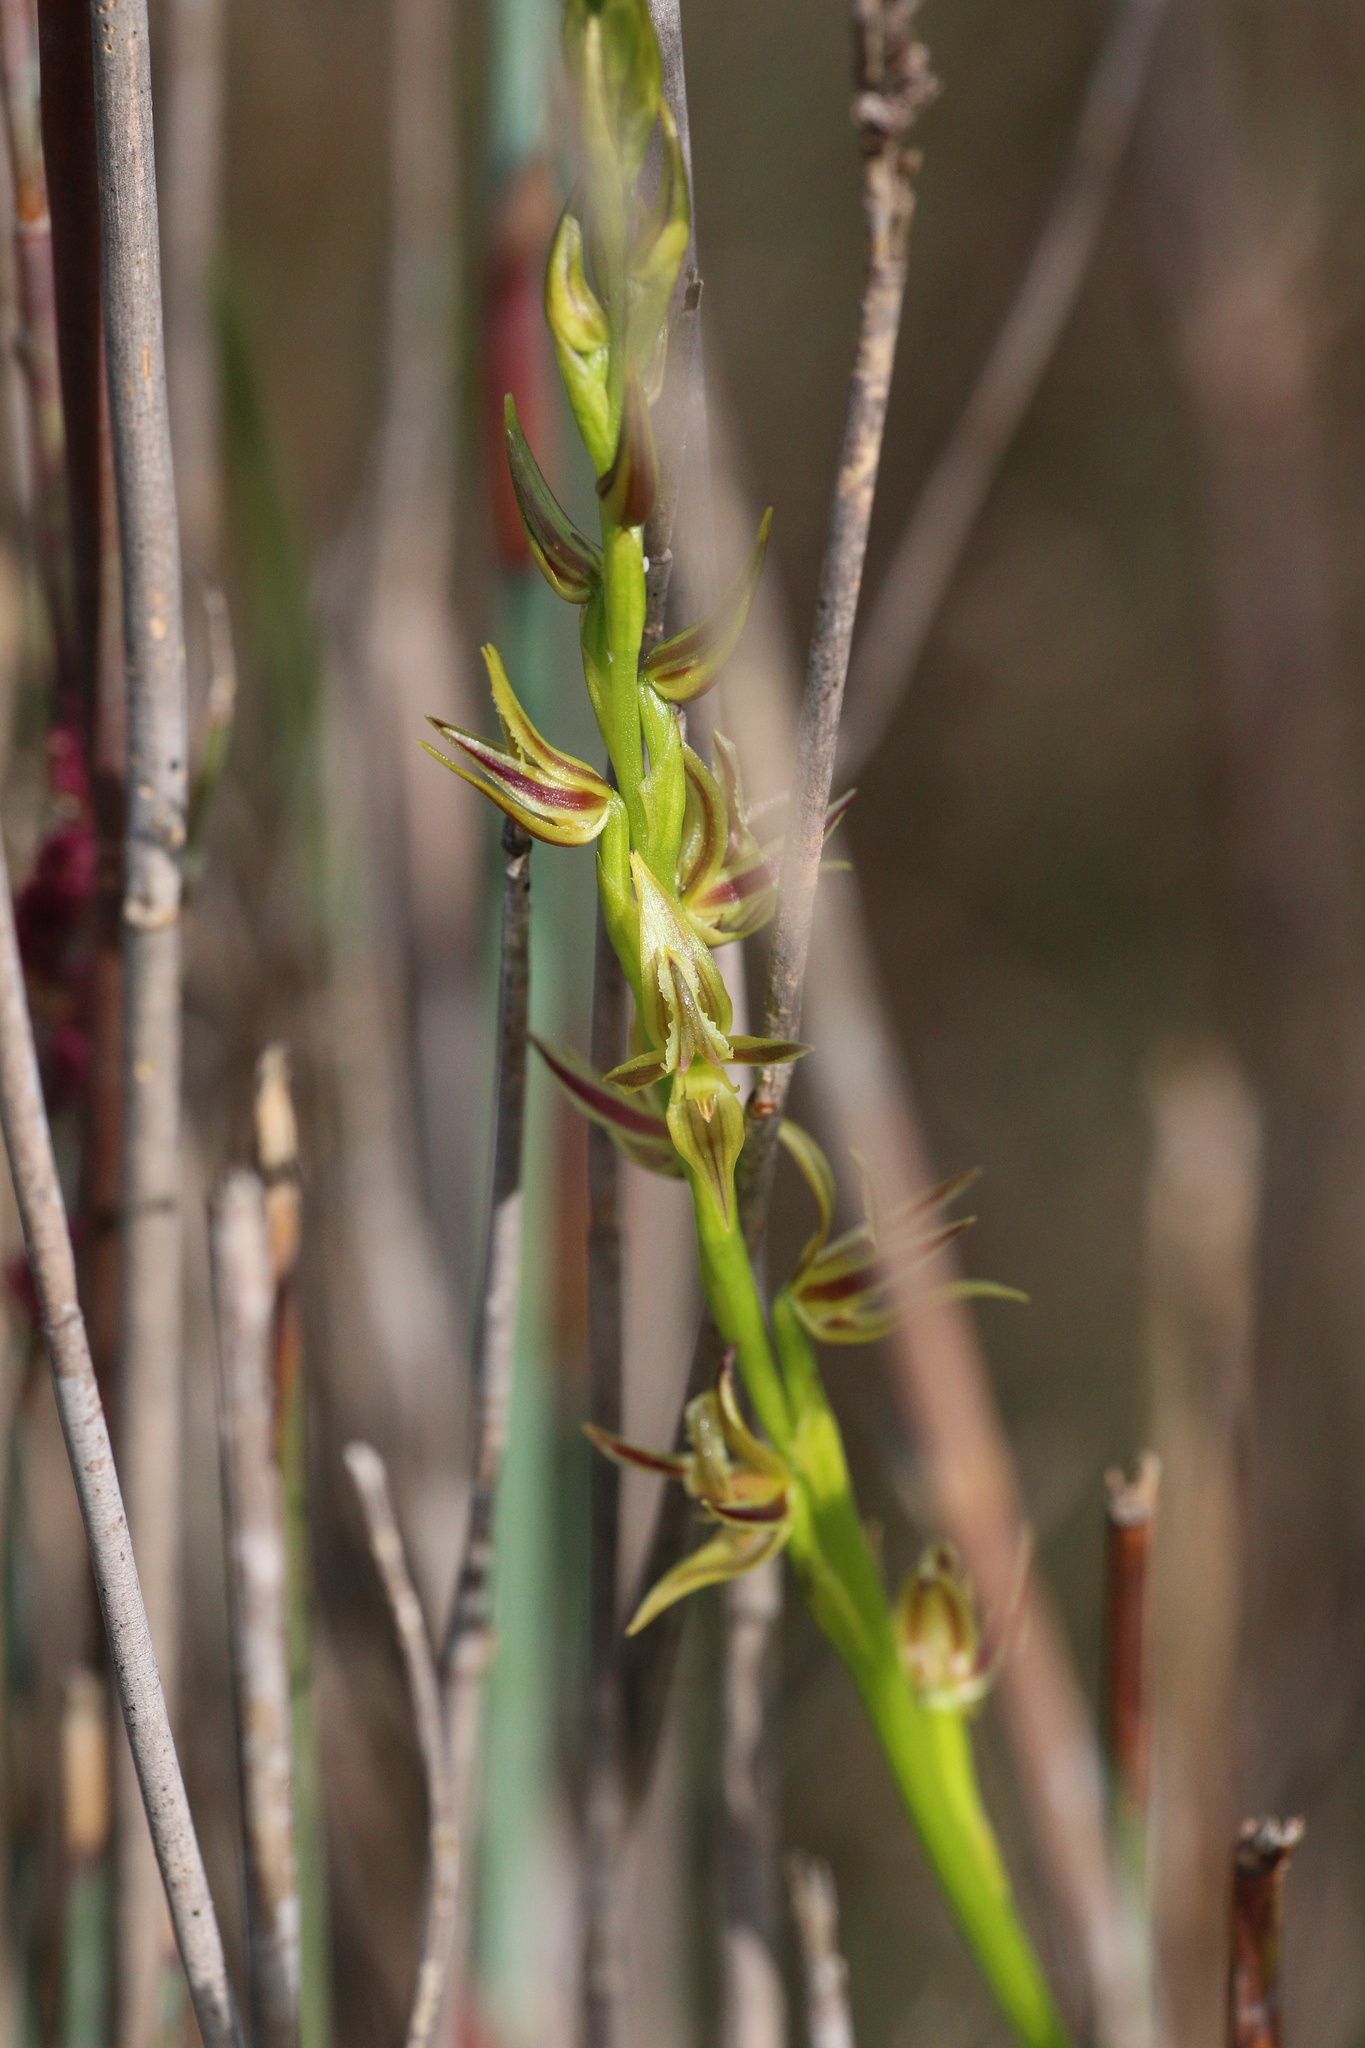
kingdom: Plantae
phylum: Tracheophyta
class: Liliopsida
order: Asparagales
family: Orchidaceae
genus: Prasophyllum
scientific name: Prasophyllum drummondii
